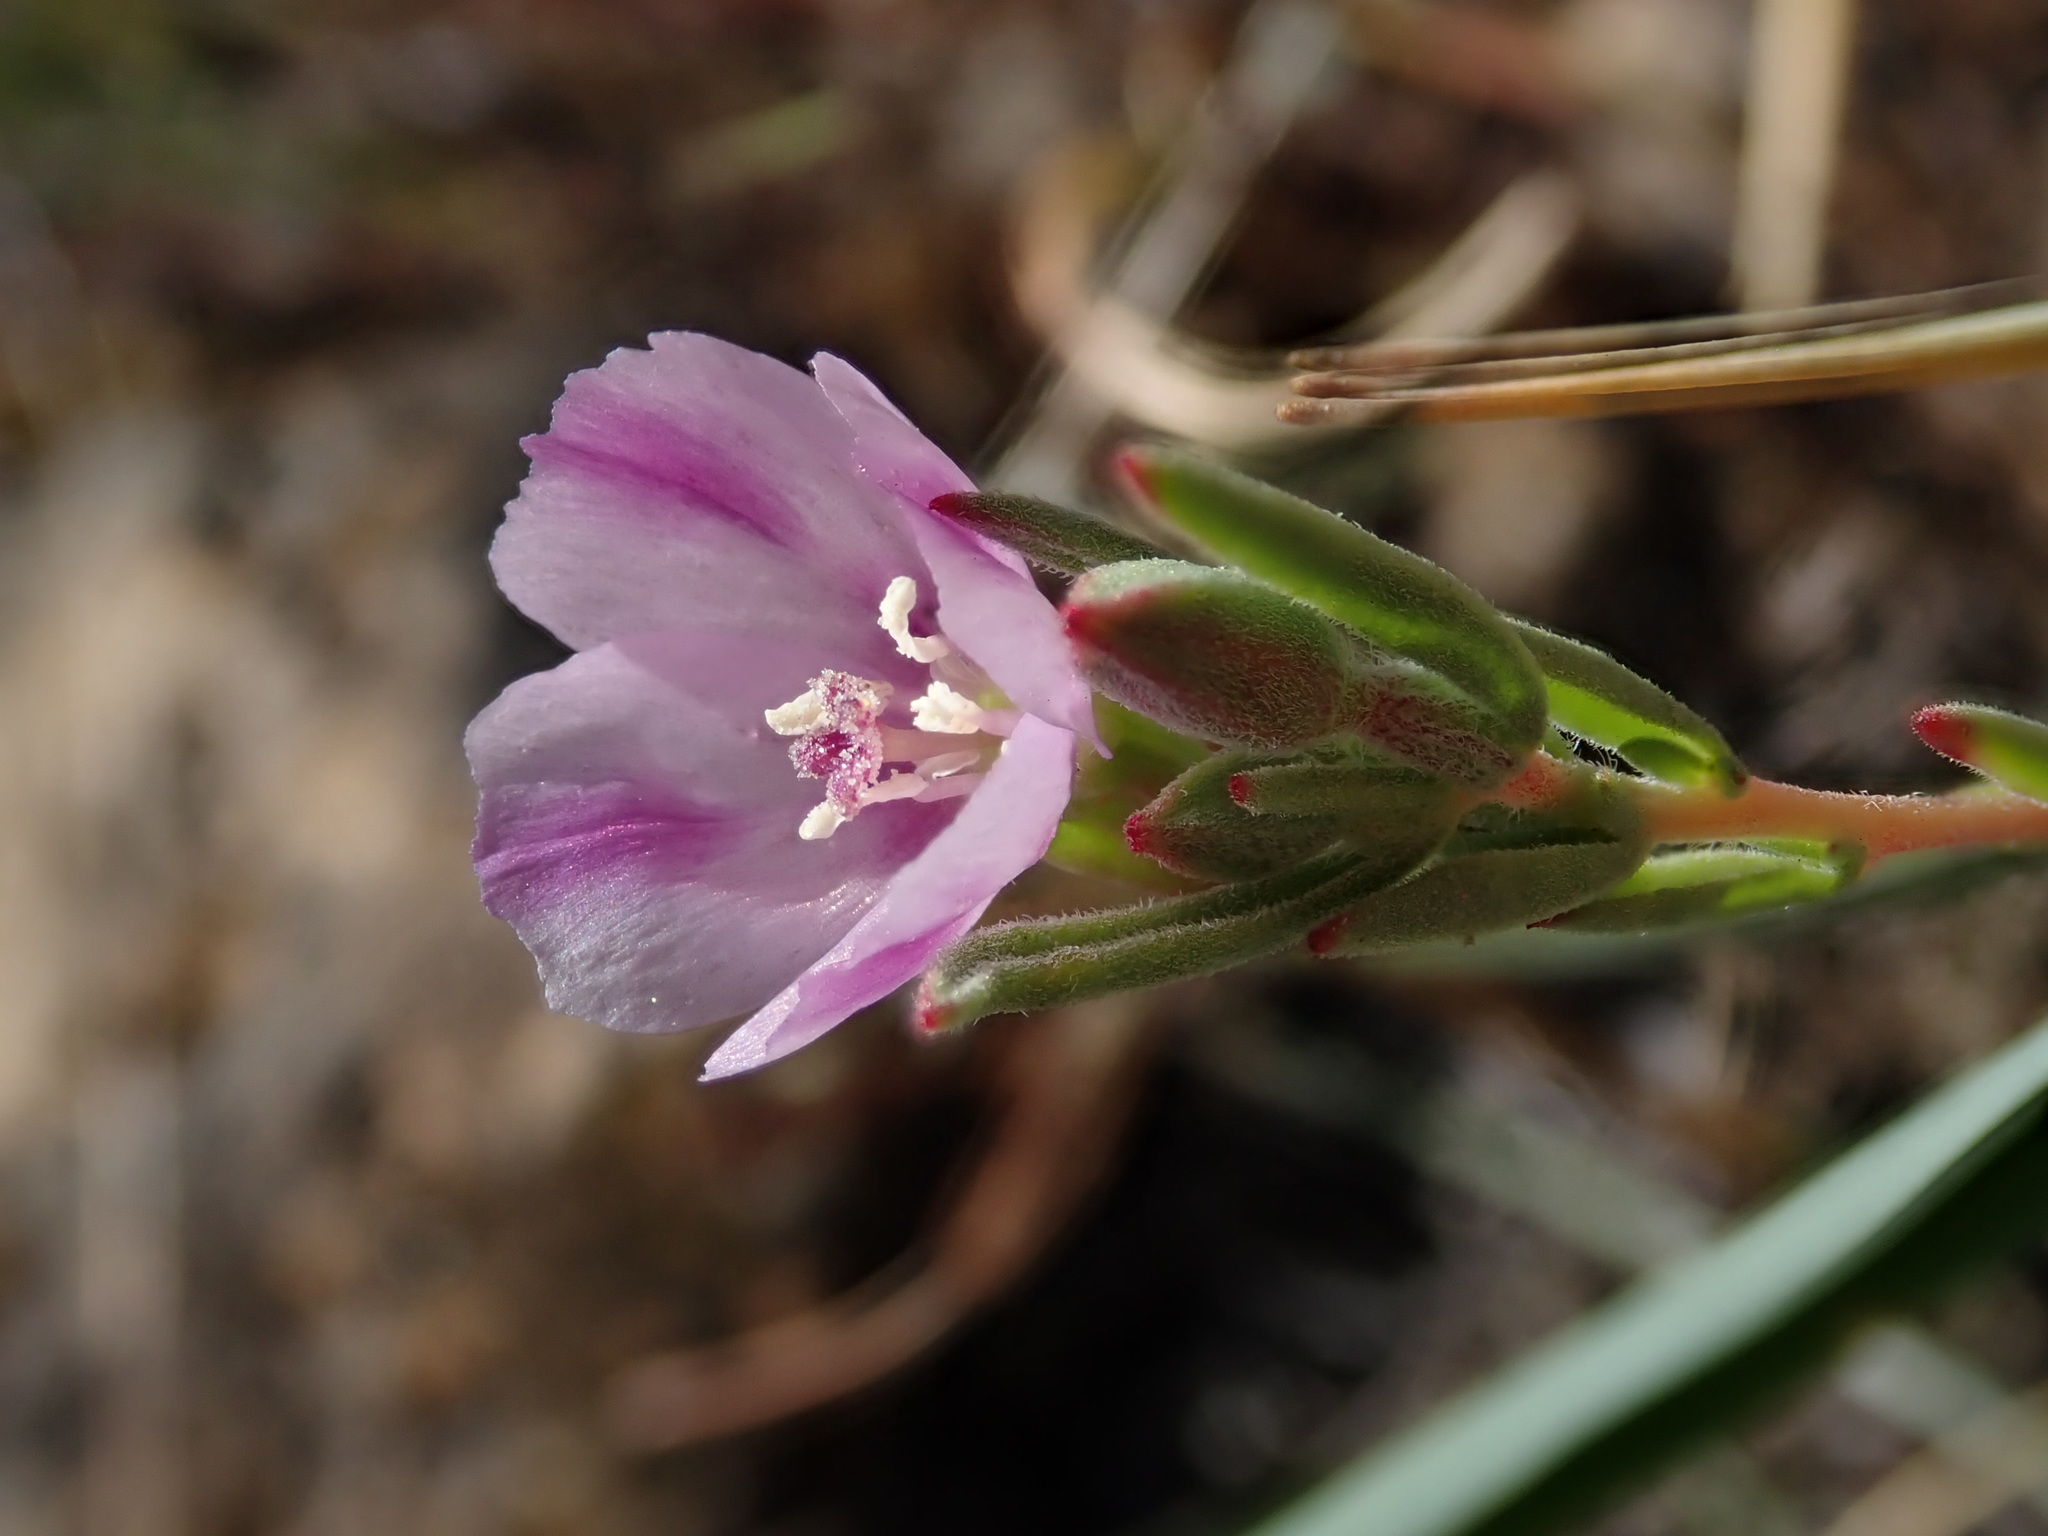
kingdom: Plantae
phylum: Tracheophyta
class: Magnoliopsida
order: Myrtales
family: Onagraceae
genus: Clarkia
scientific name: Clarkia purpurea
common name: Purple clarkia
